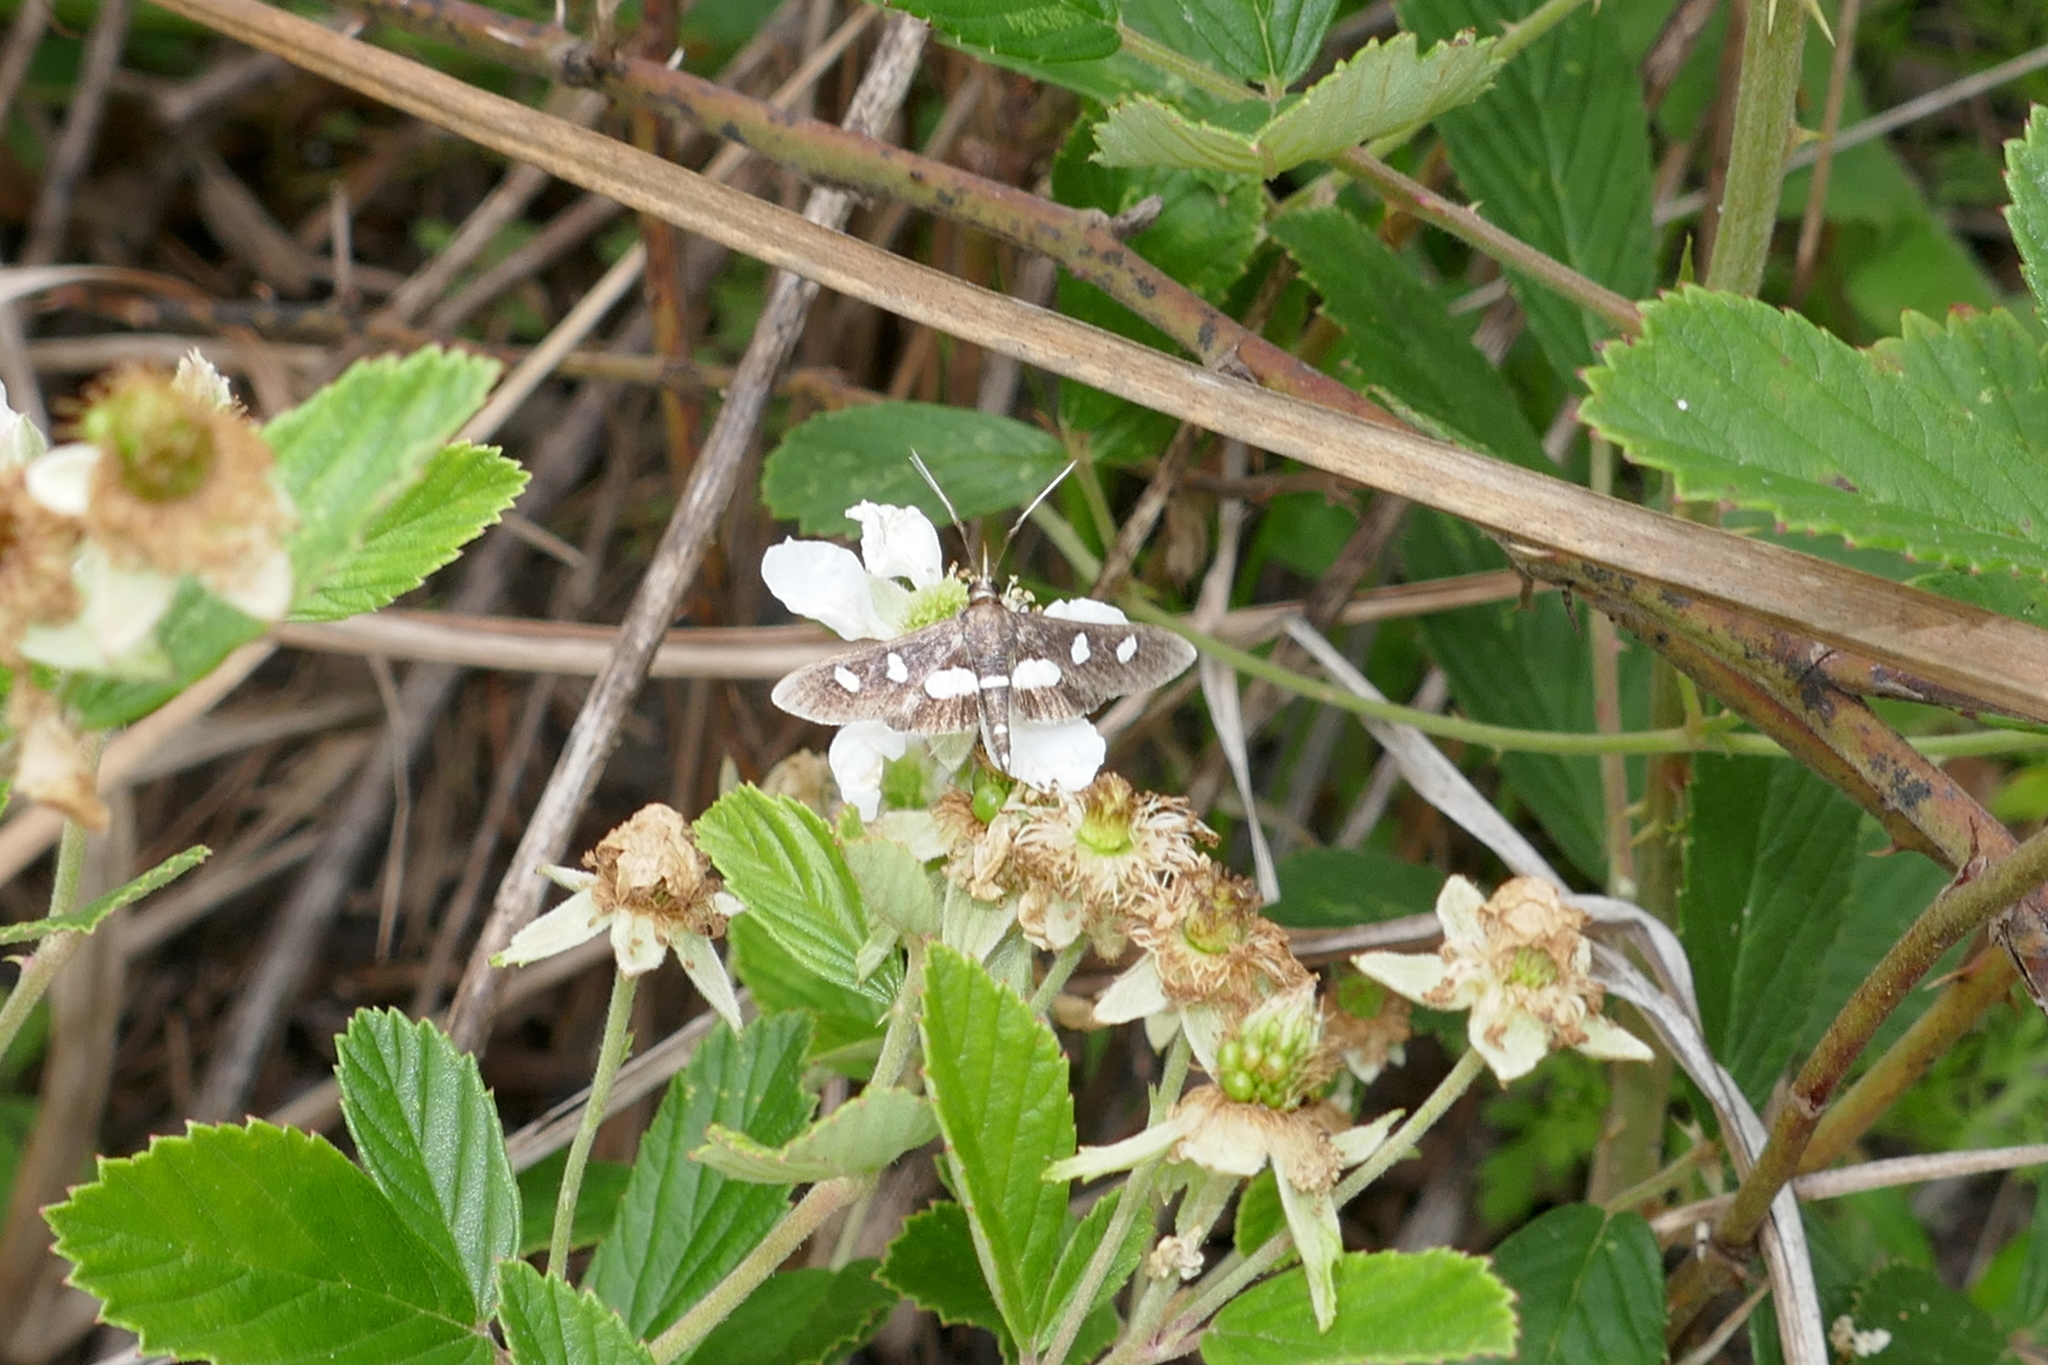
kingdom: Animalia
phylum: Arthropoda
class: Insecta
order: Lepidoptera
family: Crambidae
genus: Desmia
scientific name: Desmia
